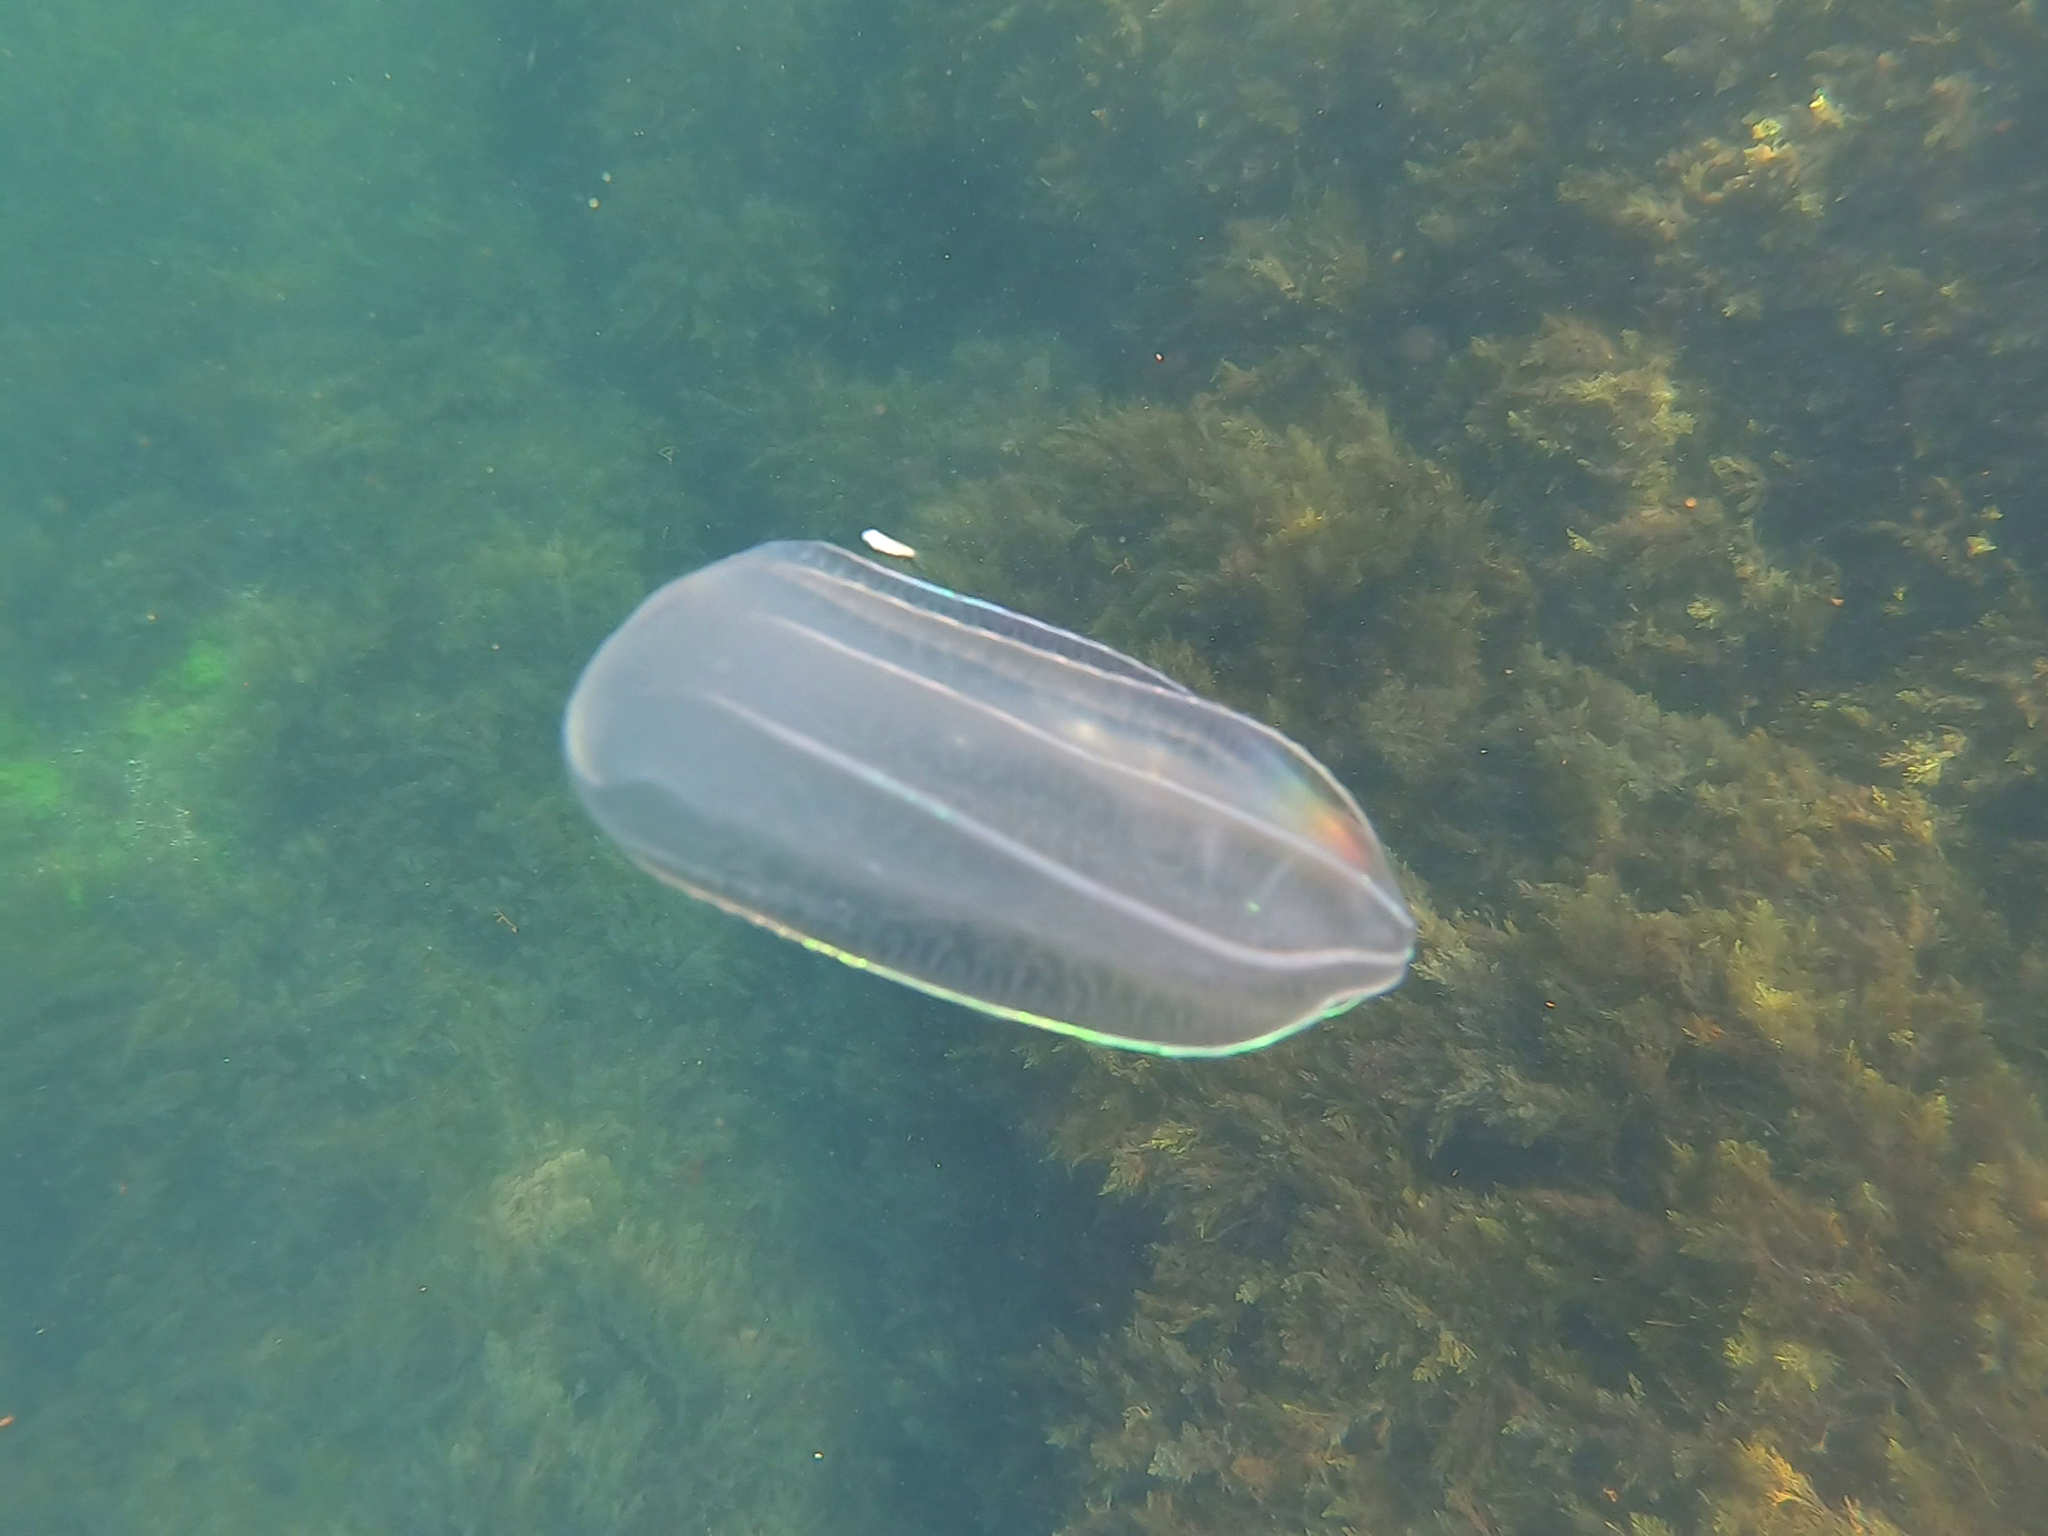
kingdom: Animalia
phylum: Ctenophora
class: Nuda
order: Beroida
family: Beroidae
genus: Beroe
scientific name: Beroe ovata
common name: Flattened helmet comb jelly
